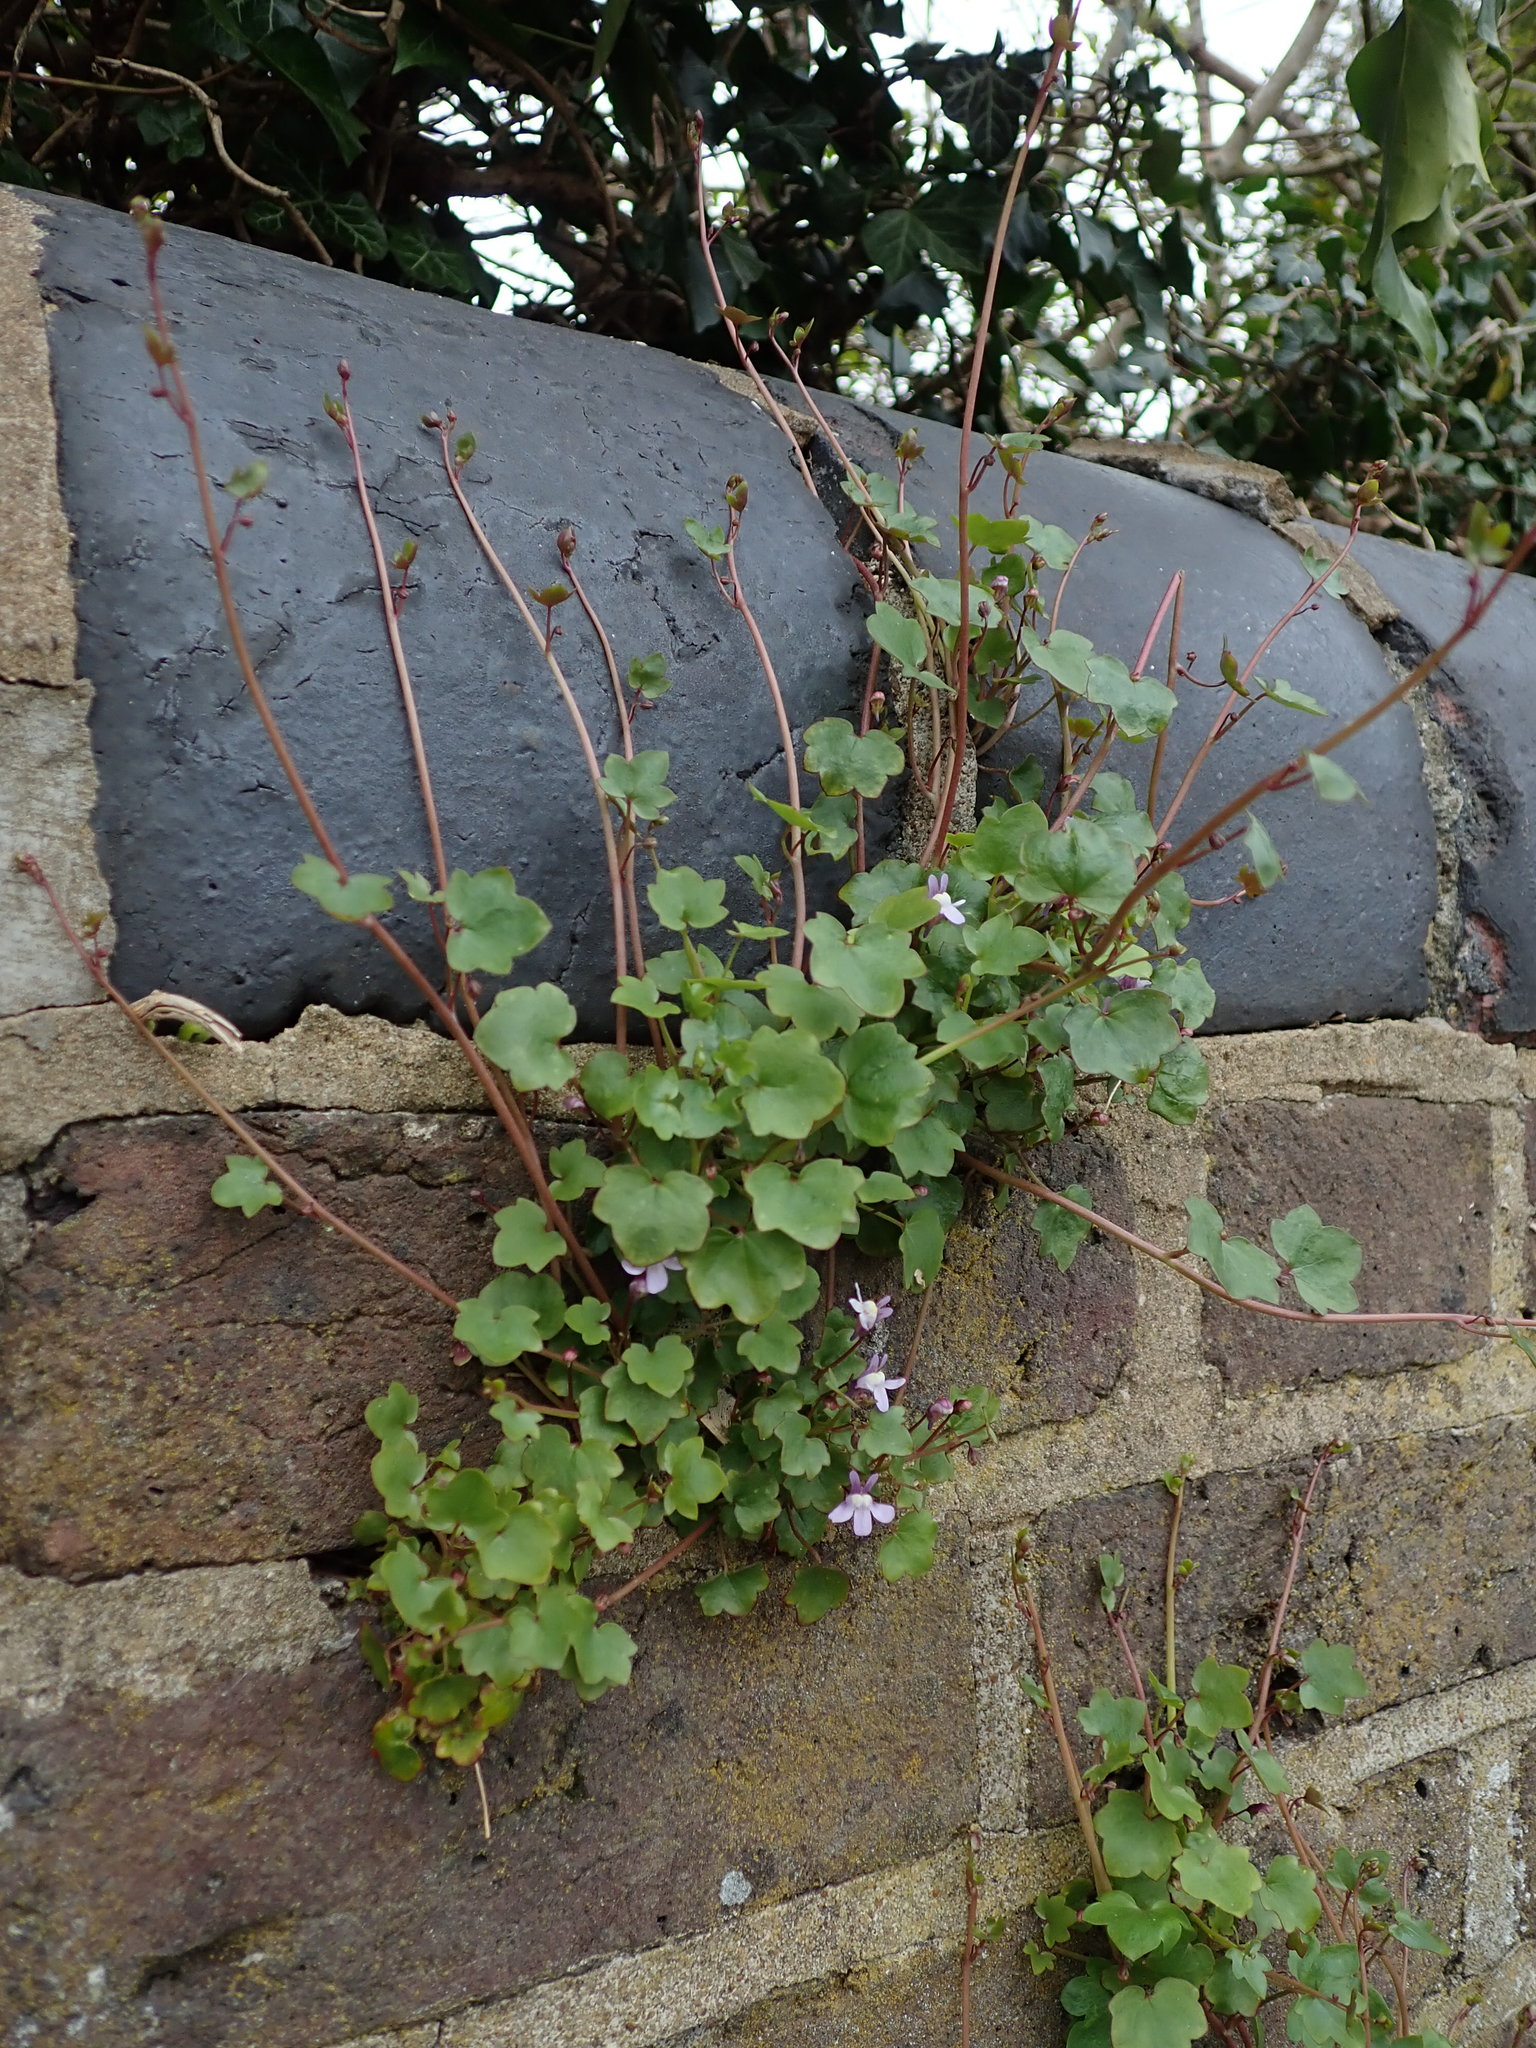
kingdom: Plantae
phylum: Tracheophyta
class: Magnoliopsida
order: Lamiales
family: Plantaginaceae
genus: Cymbalaria
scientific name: Cymbalaria muralis
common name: Ivy-leaved toadflax
